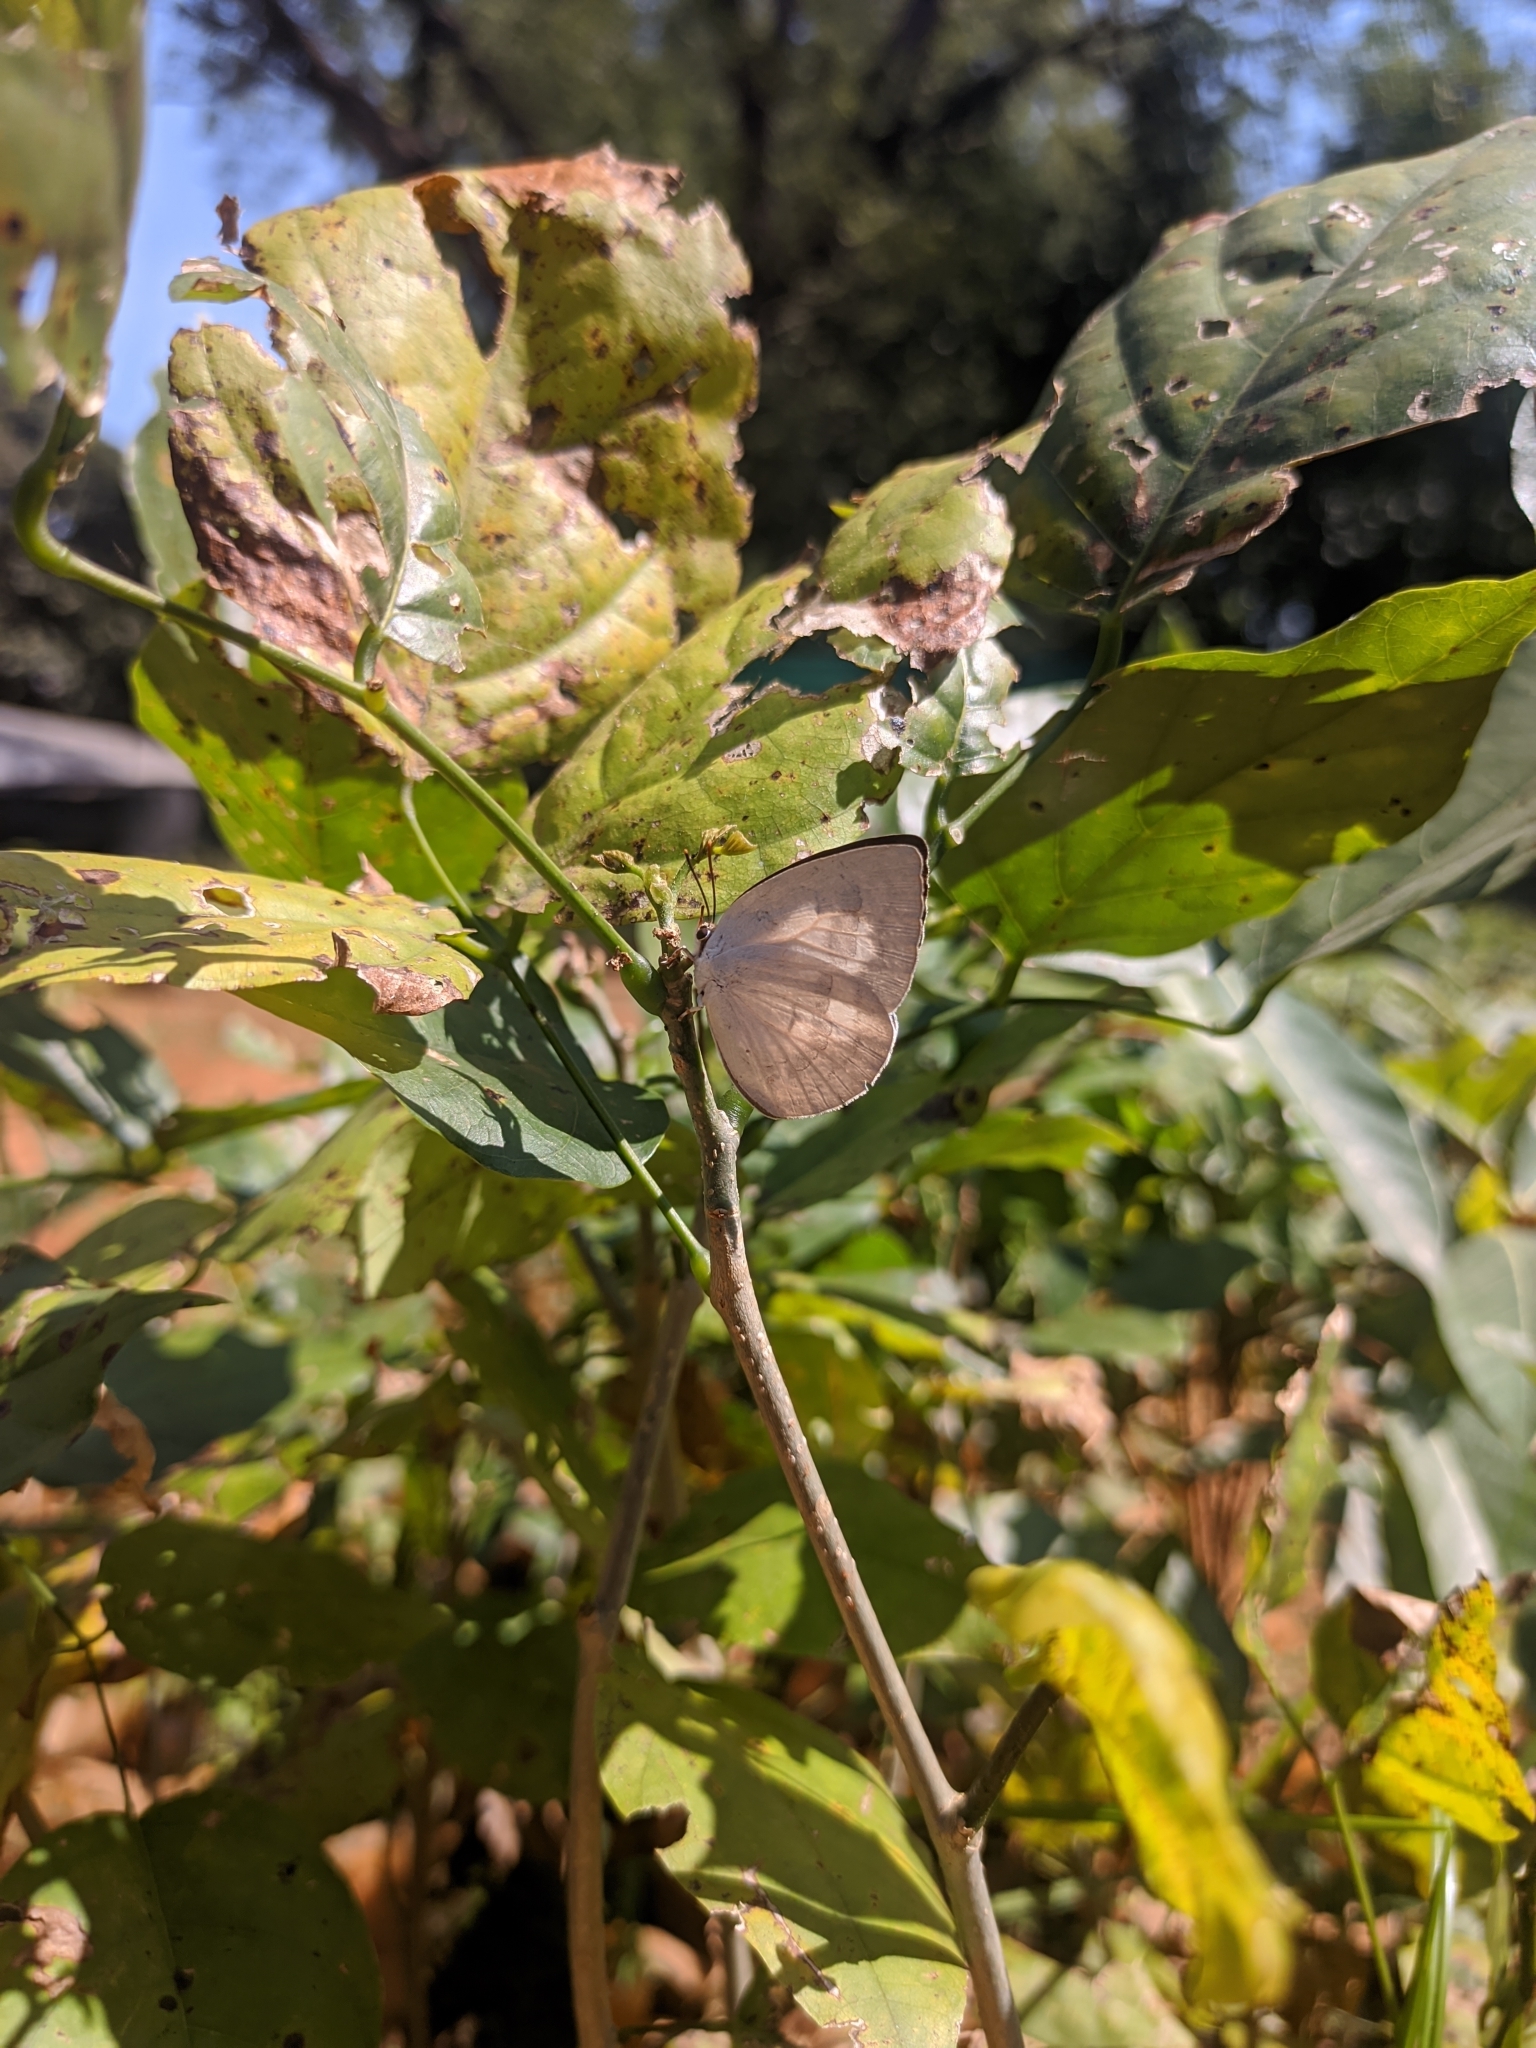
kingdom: Animalia
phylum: Arthropoda
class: Insecta
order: Lepidoptera
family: Lycaenidae
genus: Curetis
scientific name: Curetis thetis
